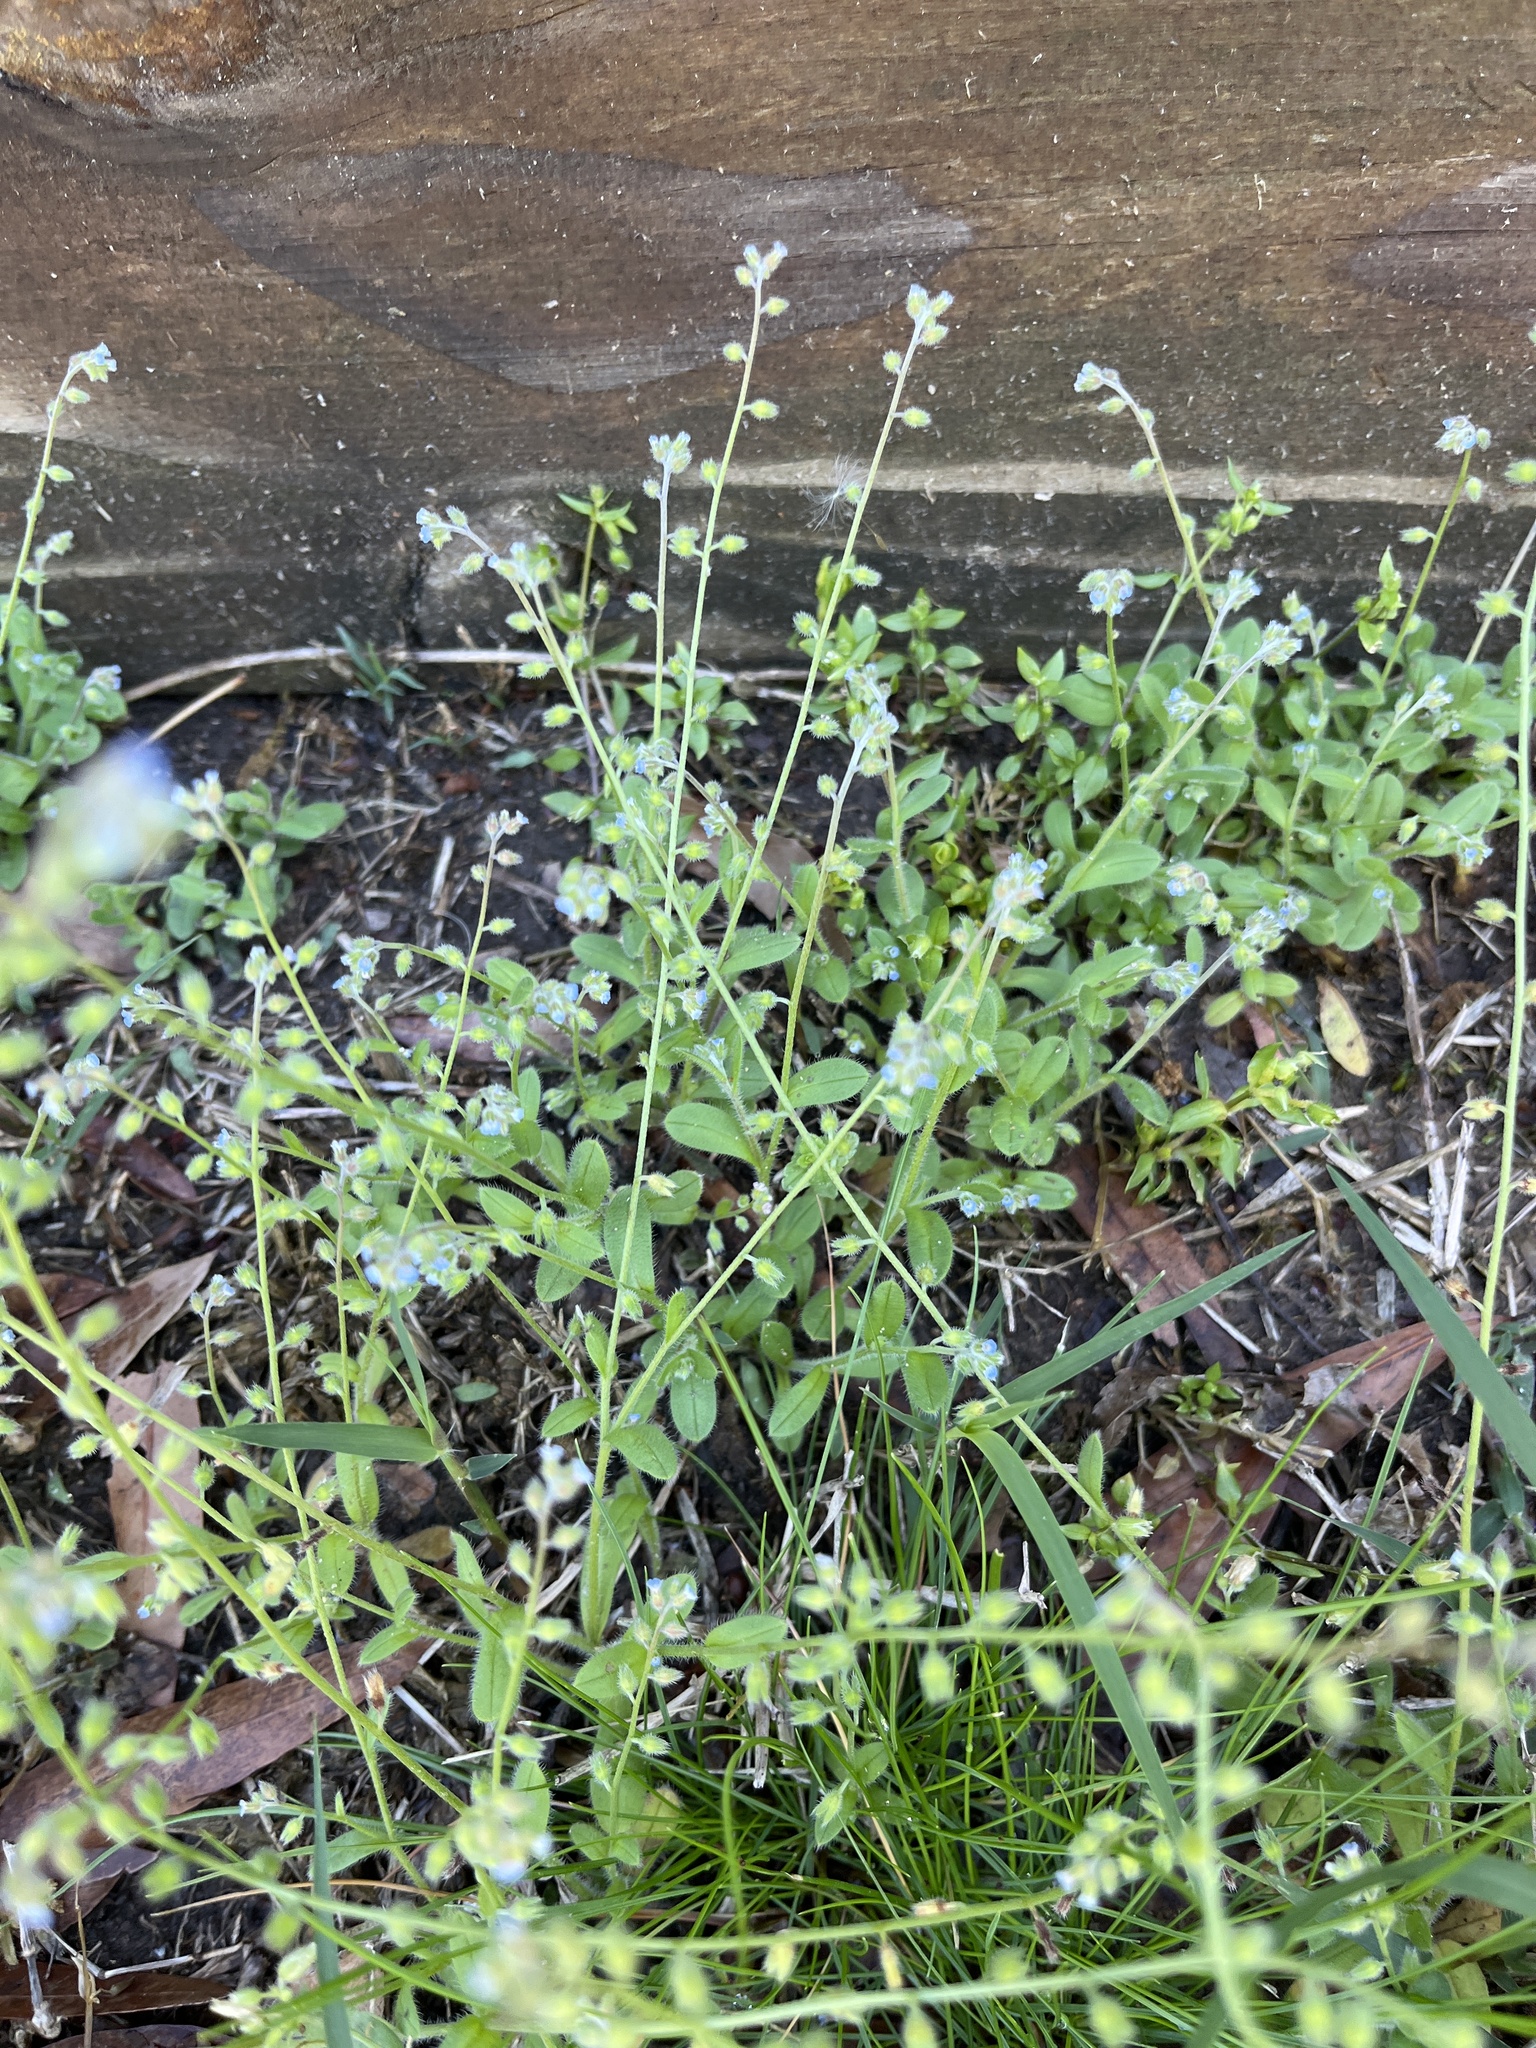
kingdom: Plantae
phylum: Tracheophyta
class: Magnoliopsida
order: Boraginales
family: Boraginaceae
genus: Myosotis
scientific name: Myosotis ramosissima
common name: Early forget-me-not
